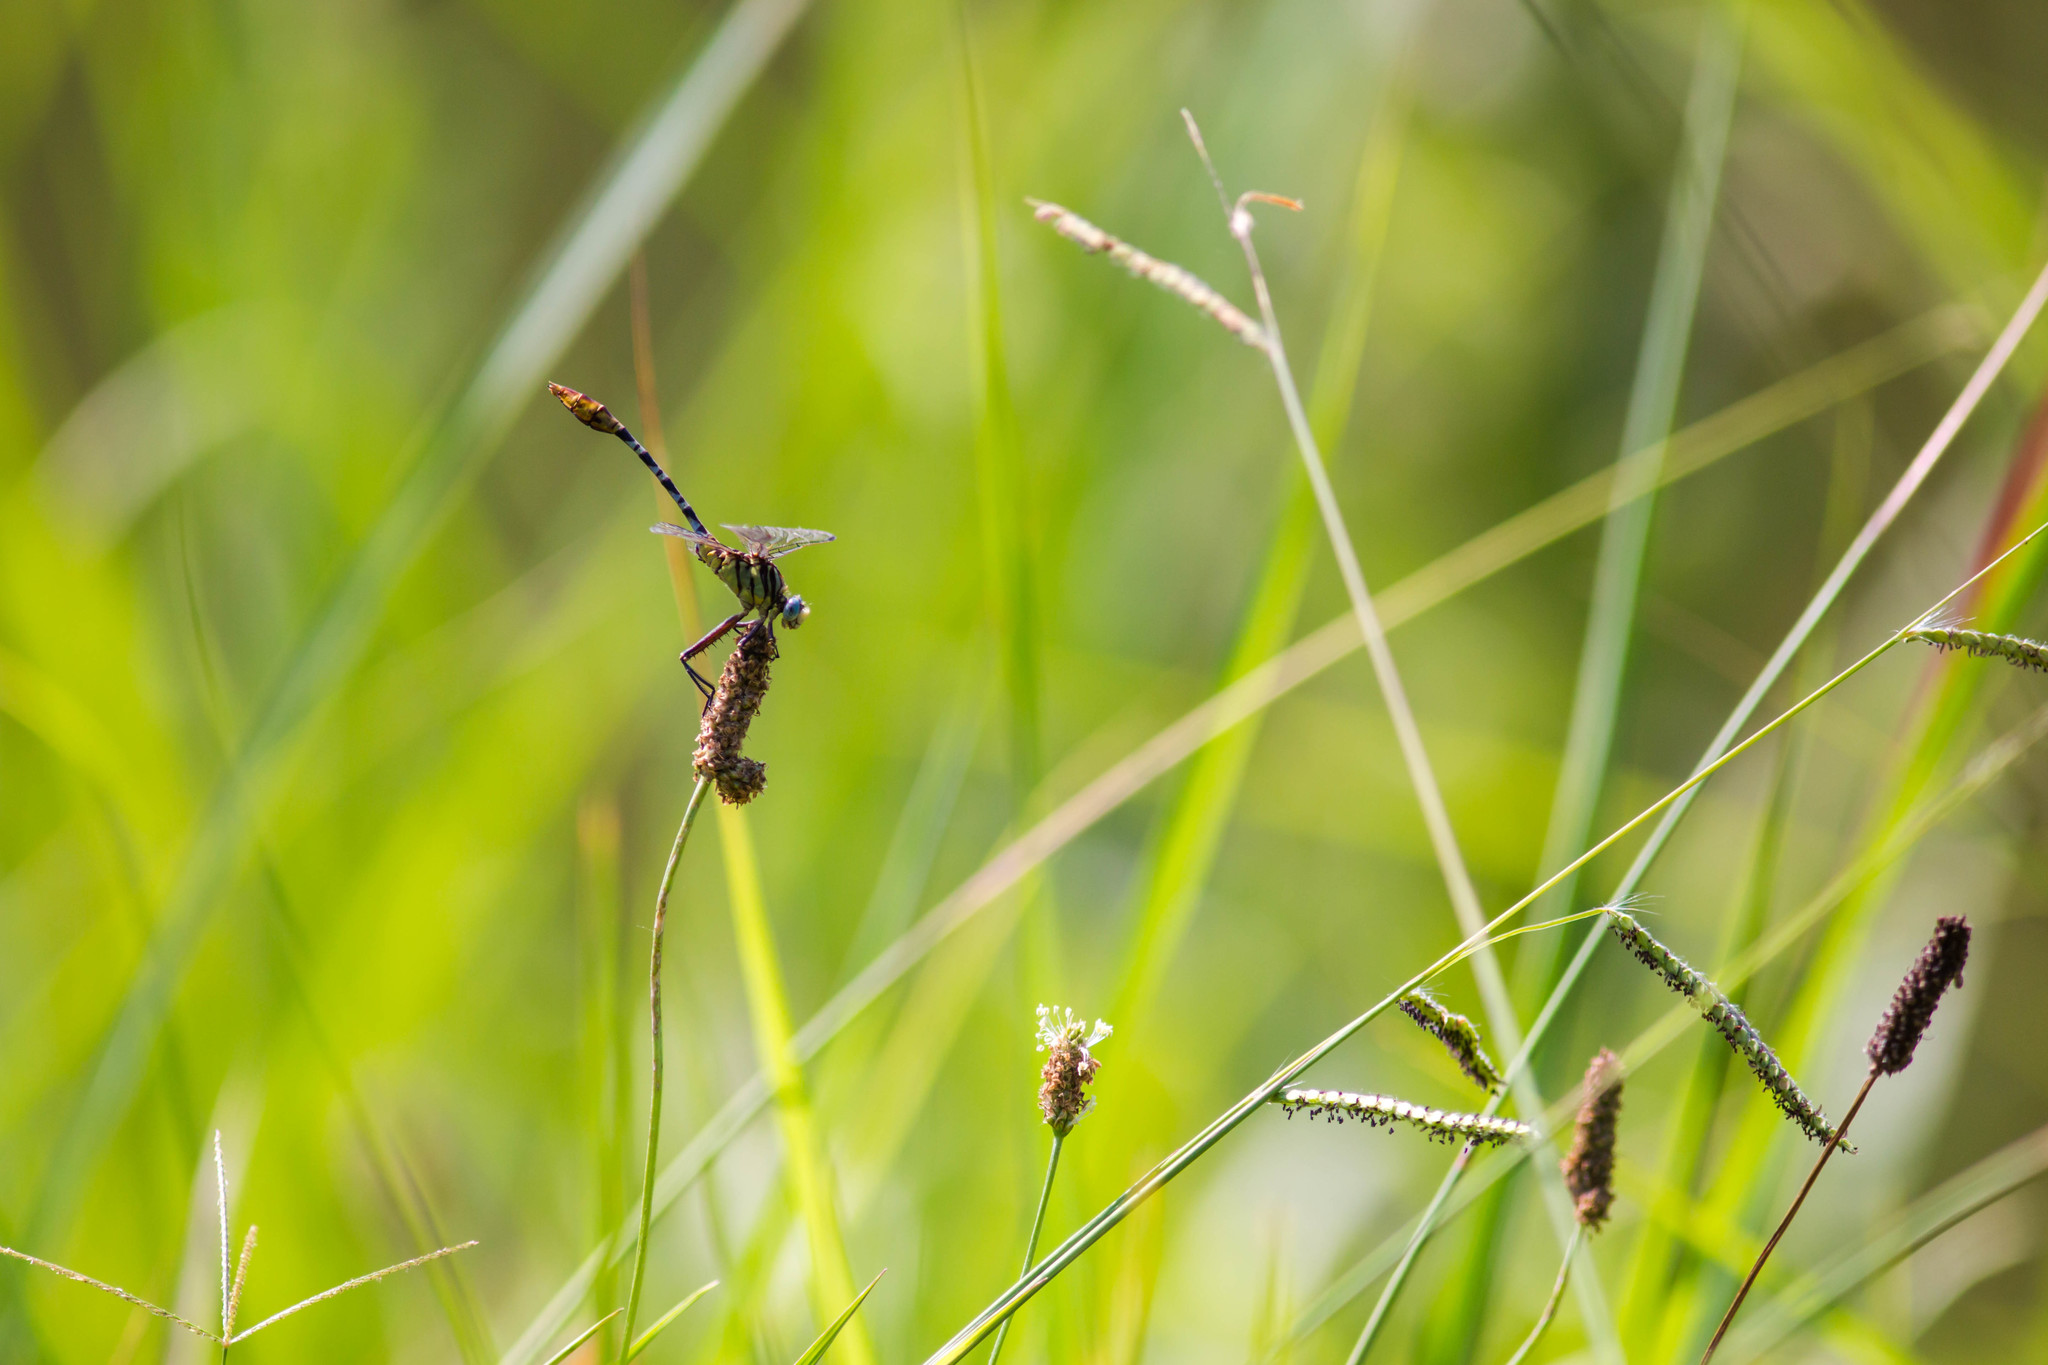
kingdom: Animalia
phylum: Arthropoda
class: Insecta
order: Odonata
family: Gomphidae
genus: Dromogomphus
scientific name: Dromogomphus spoliatus
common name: Flag-tailed spinyleg
